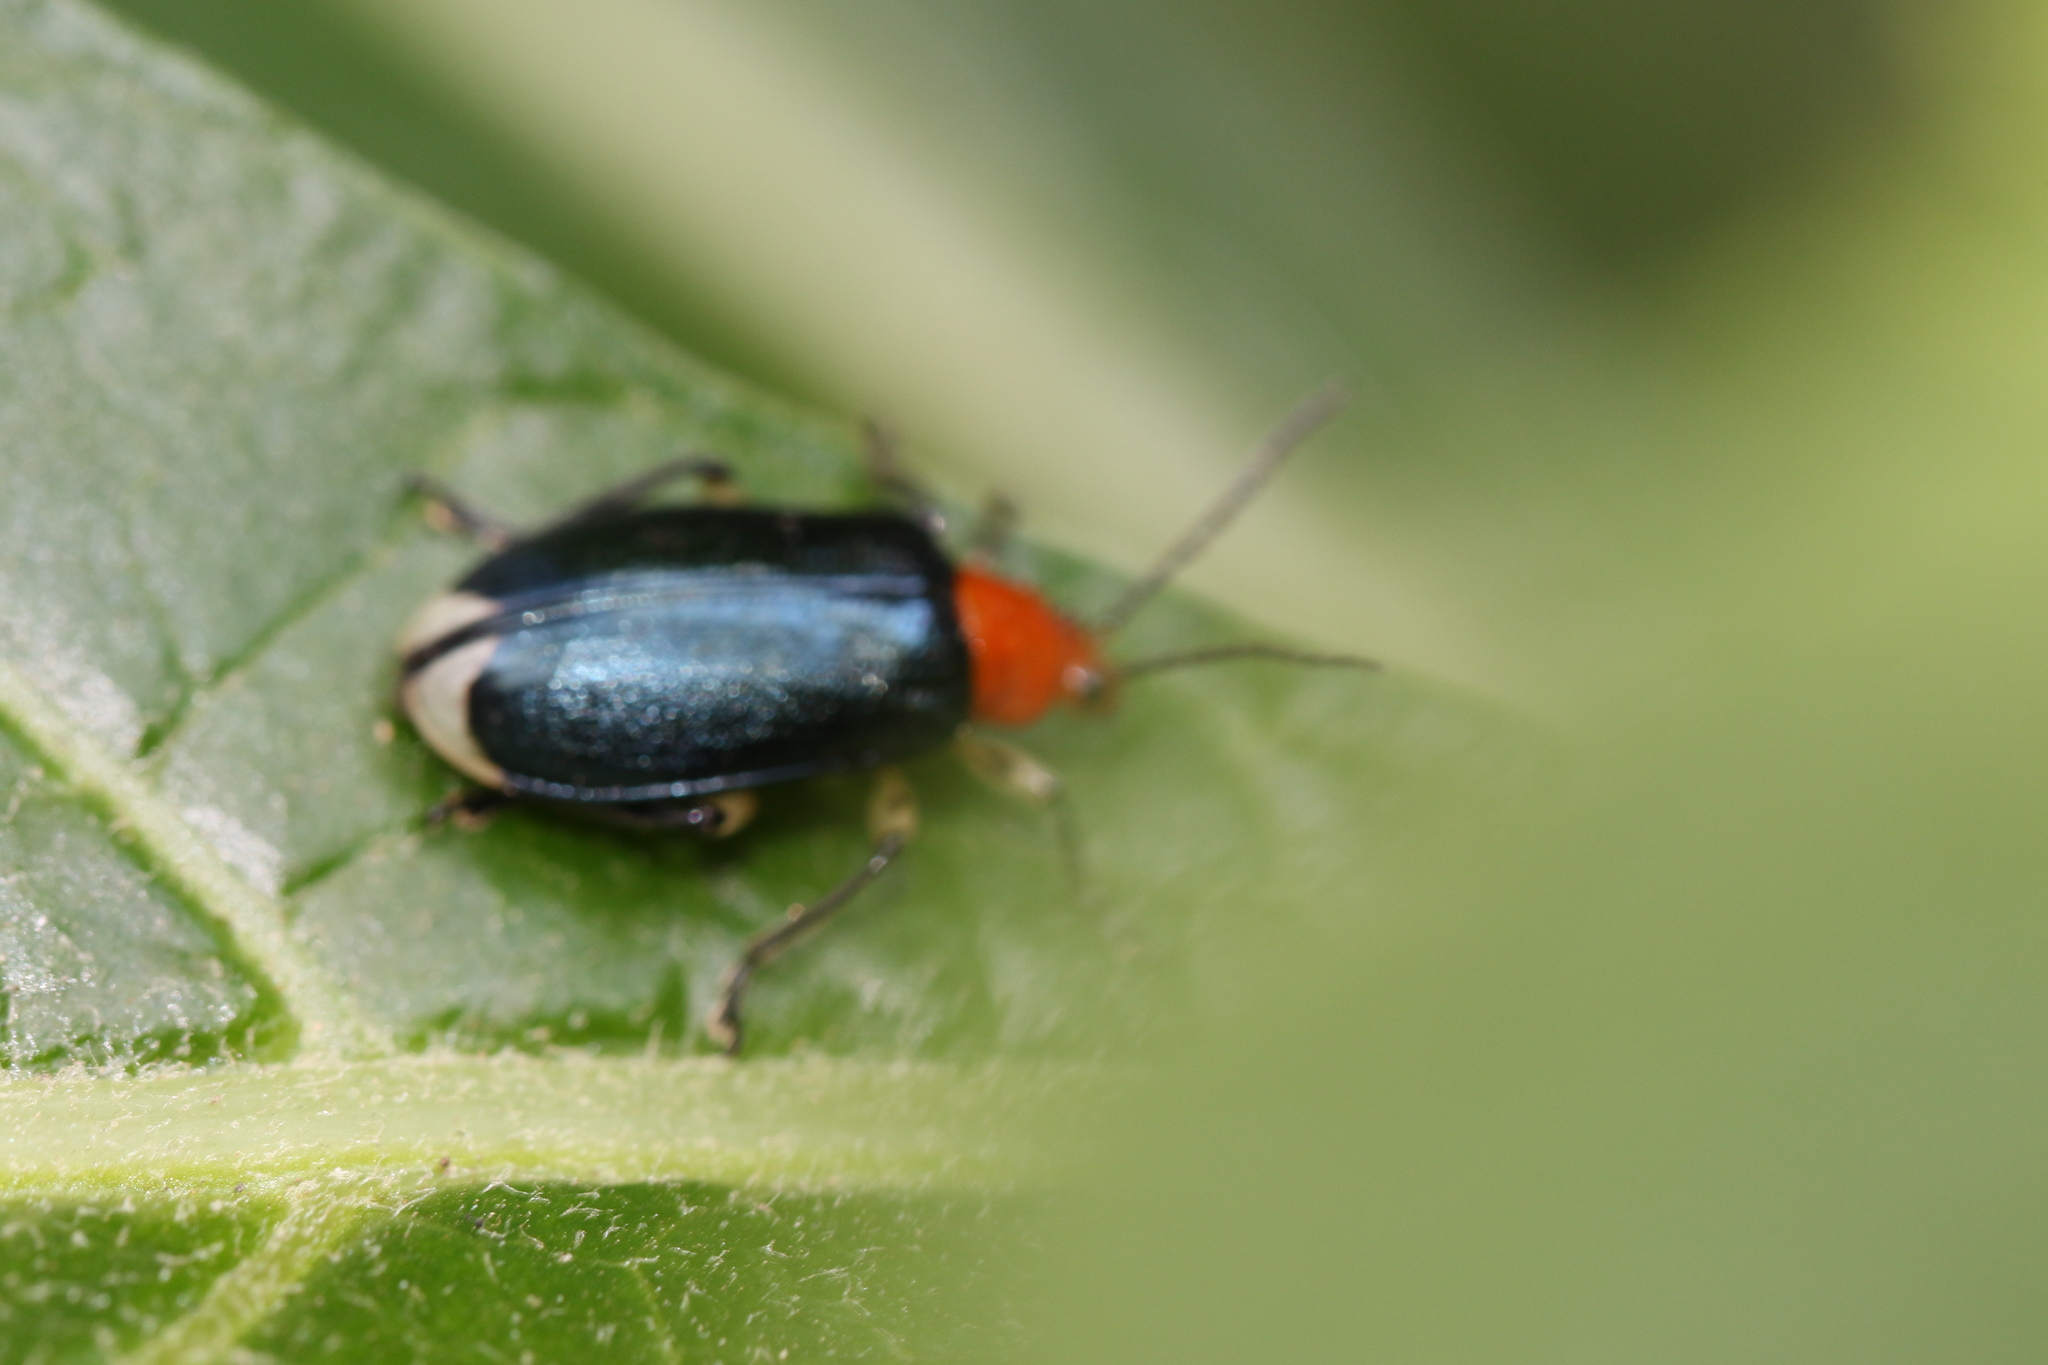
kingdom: Animalia
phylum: Arthropoda
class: Insecta
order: Coleoptera
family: Chrysomelidae
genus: Stolas
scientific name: Stolas chalybaea
